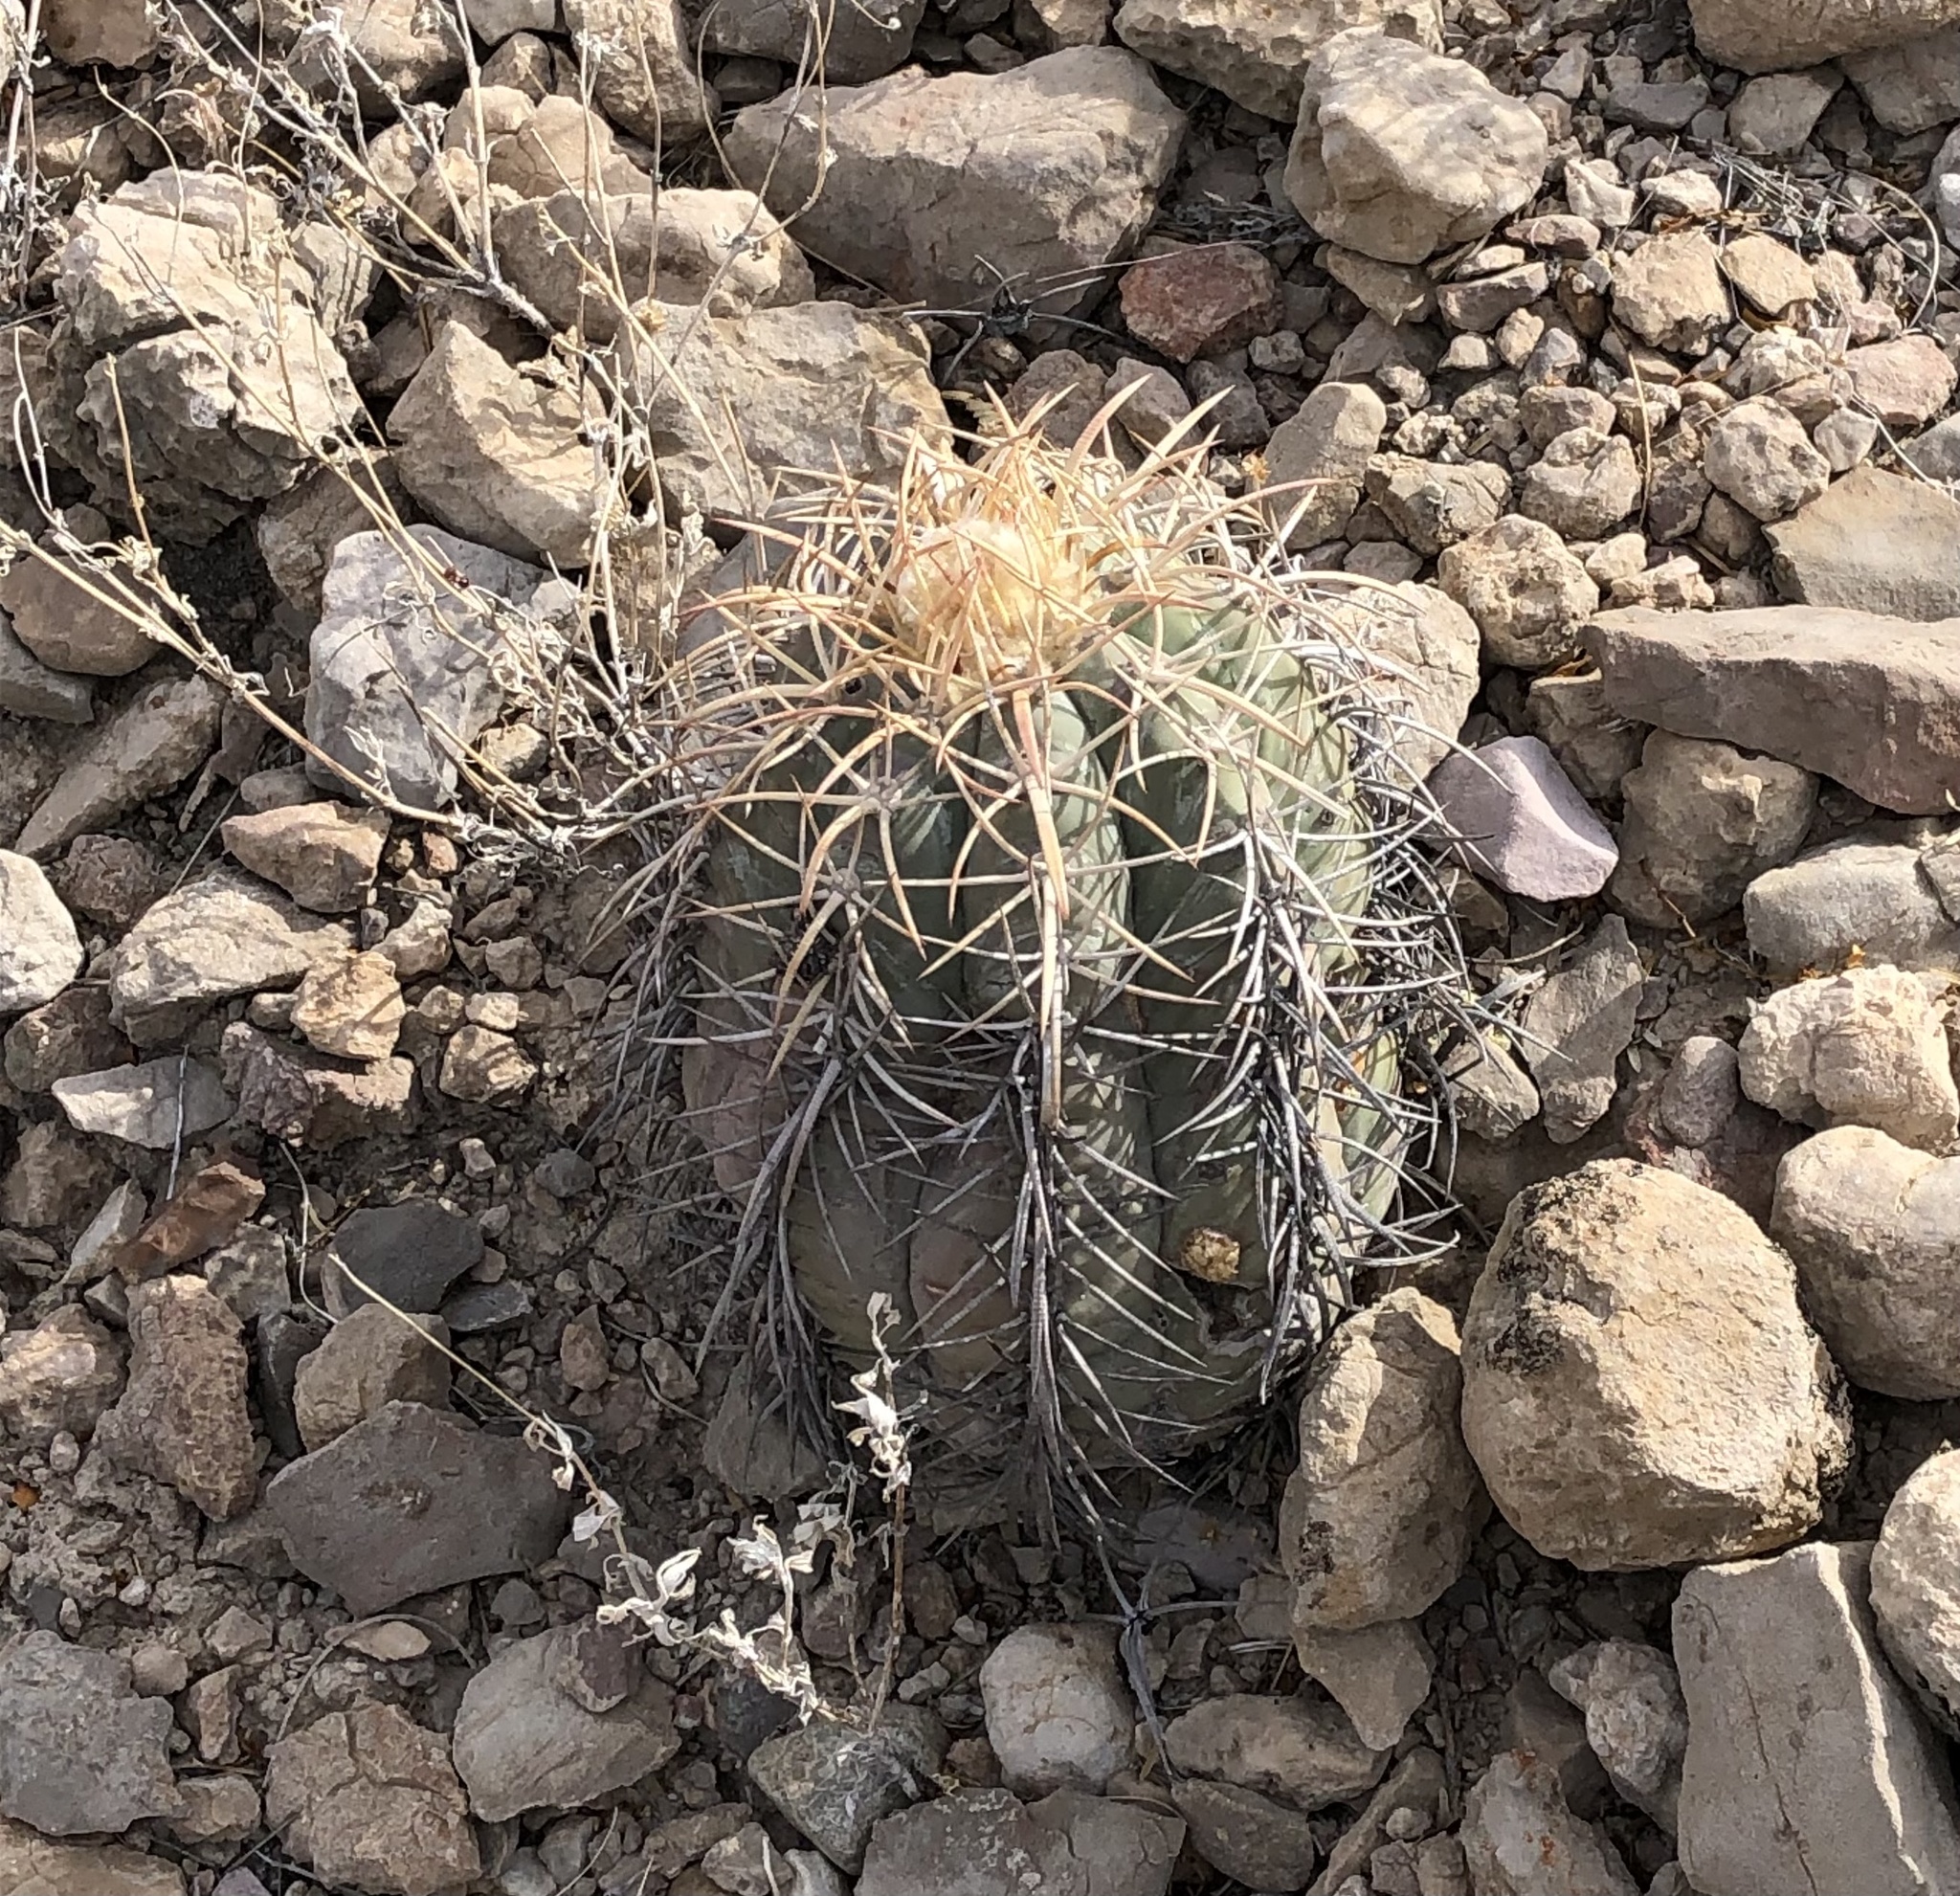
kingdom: Plantae
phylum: Tracheophyta
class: Magnoliopsida
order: Caryophyllales
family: Cactaceae
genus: Echinocactus
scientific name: Echinocactus horizonthalonius
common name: Devilshead
